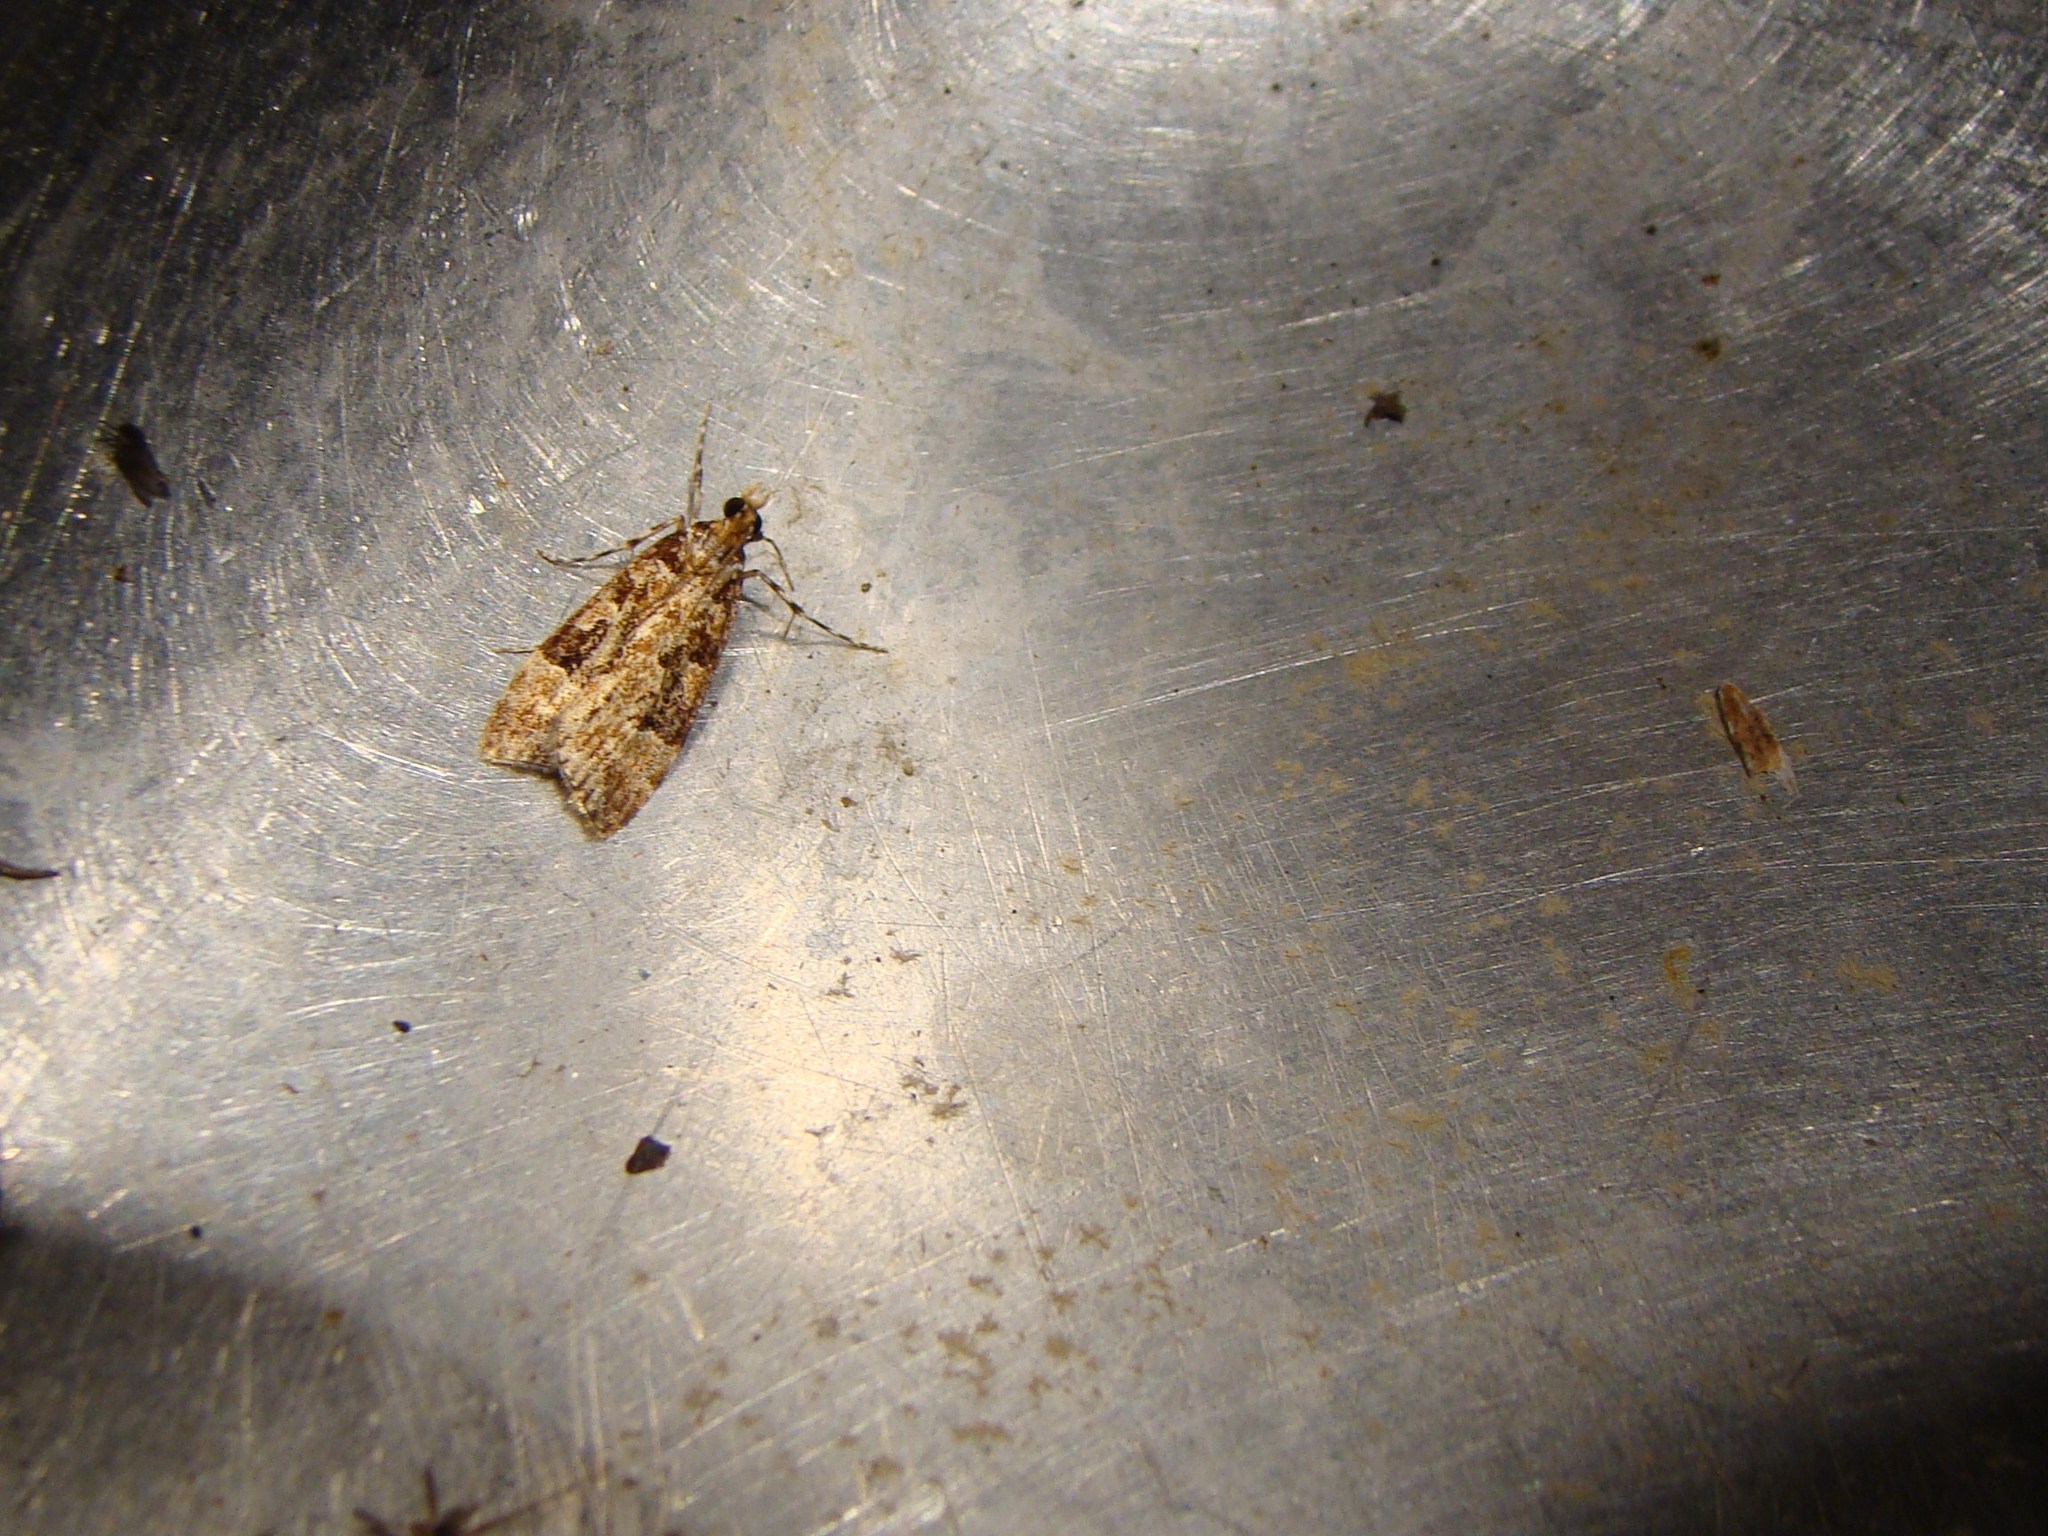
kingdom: Animalia
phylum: Arthropoda
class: Insecta
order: Lepidoptera
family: Crambidae
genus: Scoparia
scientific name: Scoparia ustimacula
